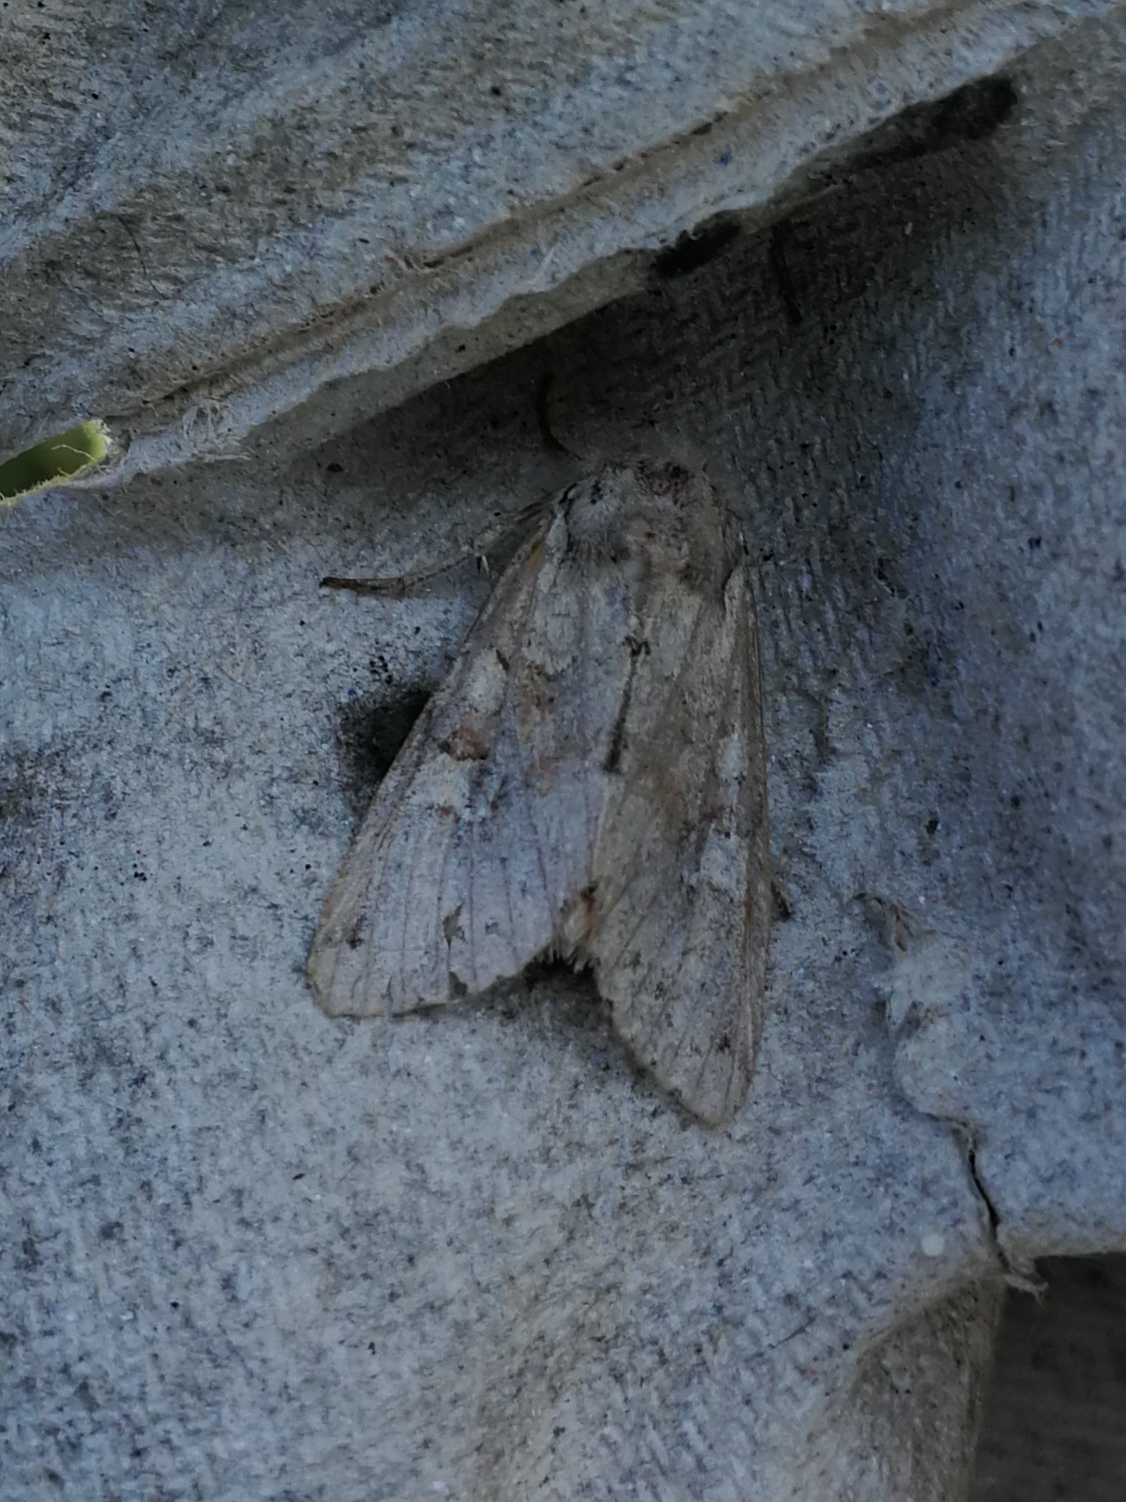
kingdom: Animalia
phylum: Arthropoda
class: Insecta
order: Lepidoptera
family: Noctuidae
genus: Apamea
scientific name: Apamea sordens
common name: Rustic shoulder-knot
